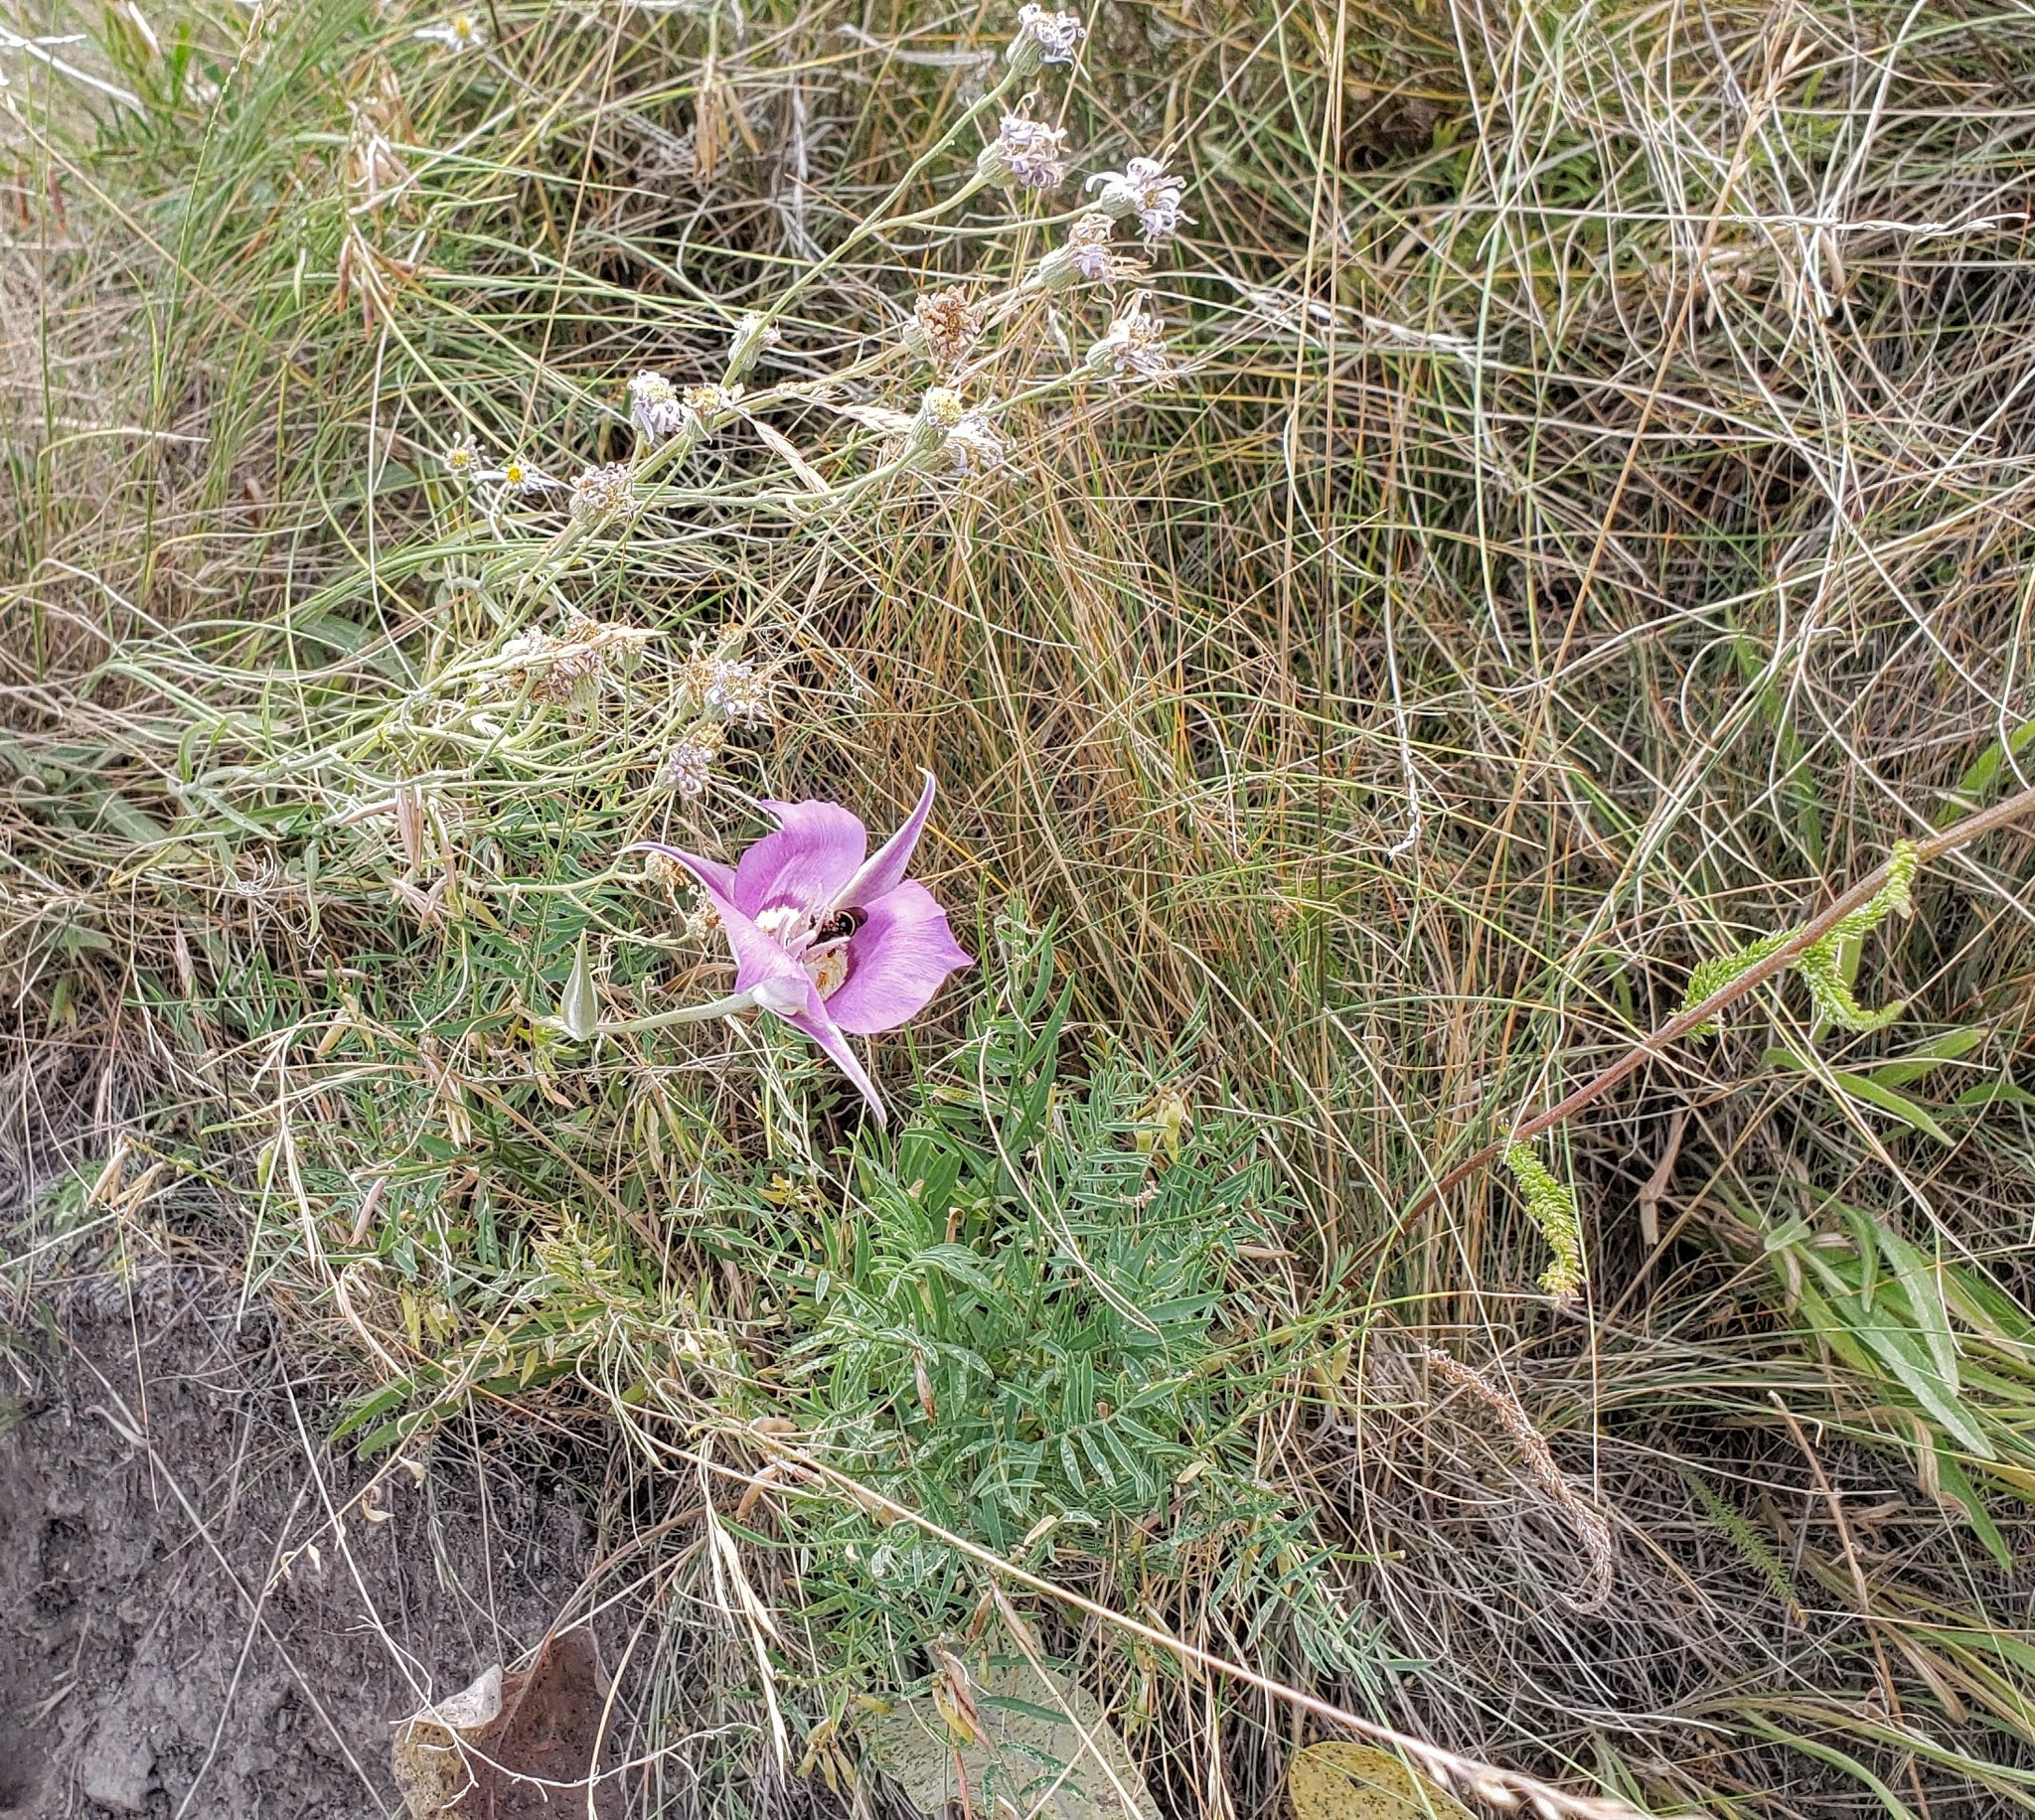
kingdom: Plantae
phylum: Tracheophyta
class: Liliopsida
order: Liliales
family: Liliaceae
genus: Calochortus
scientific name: Calochortus macrocarpus
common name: Green-band mariposa lily
